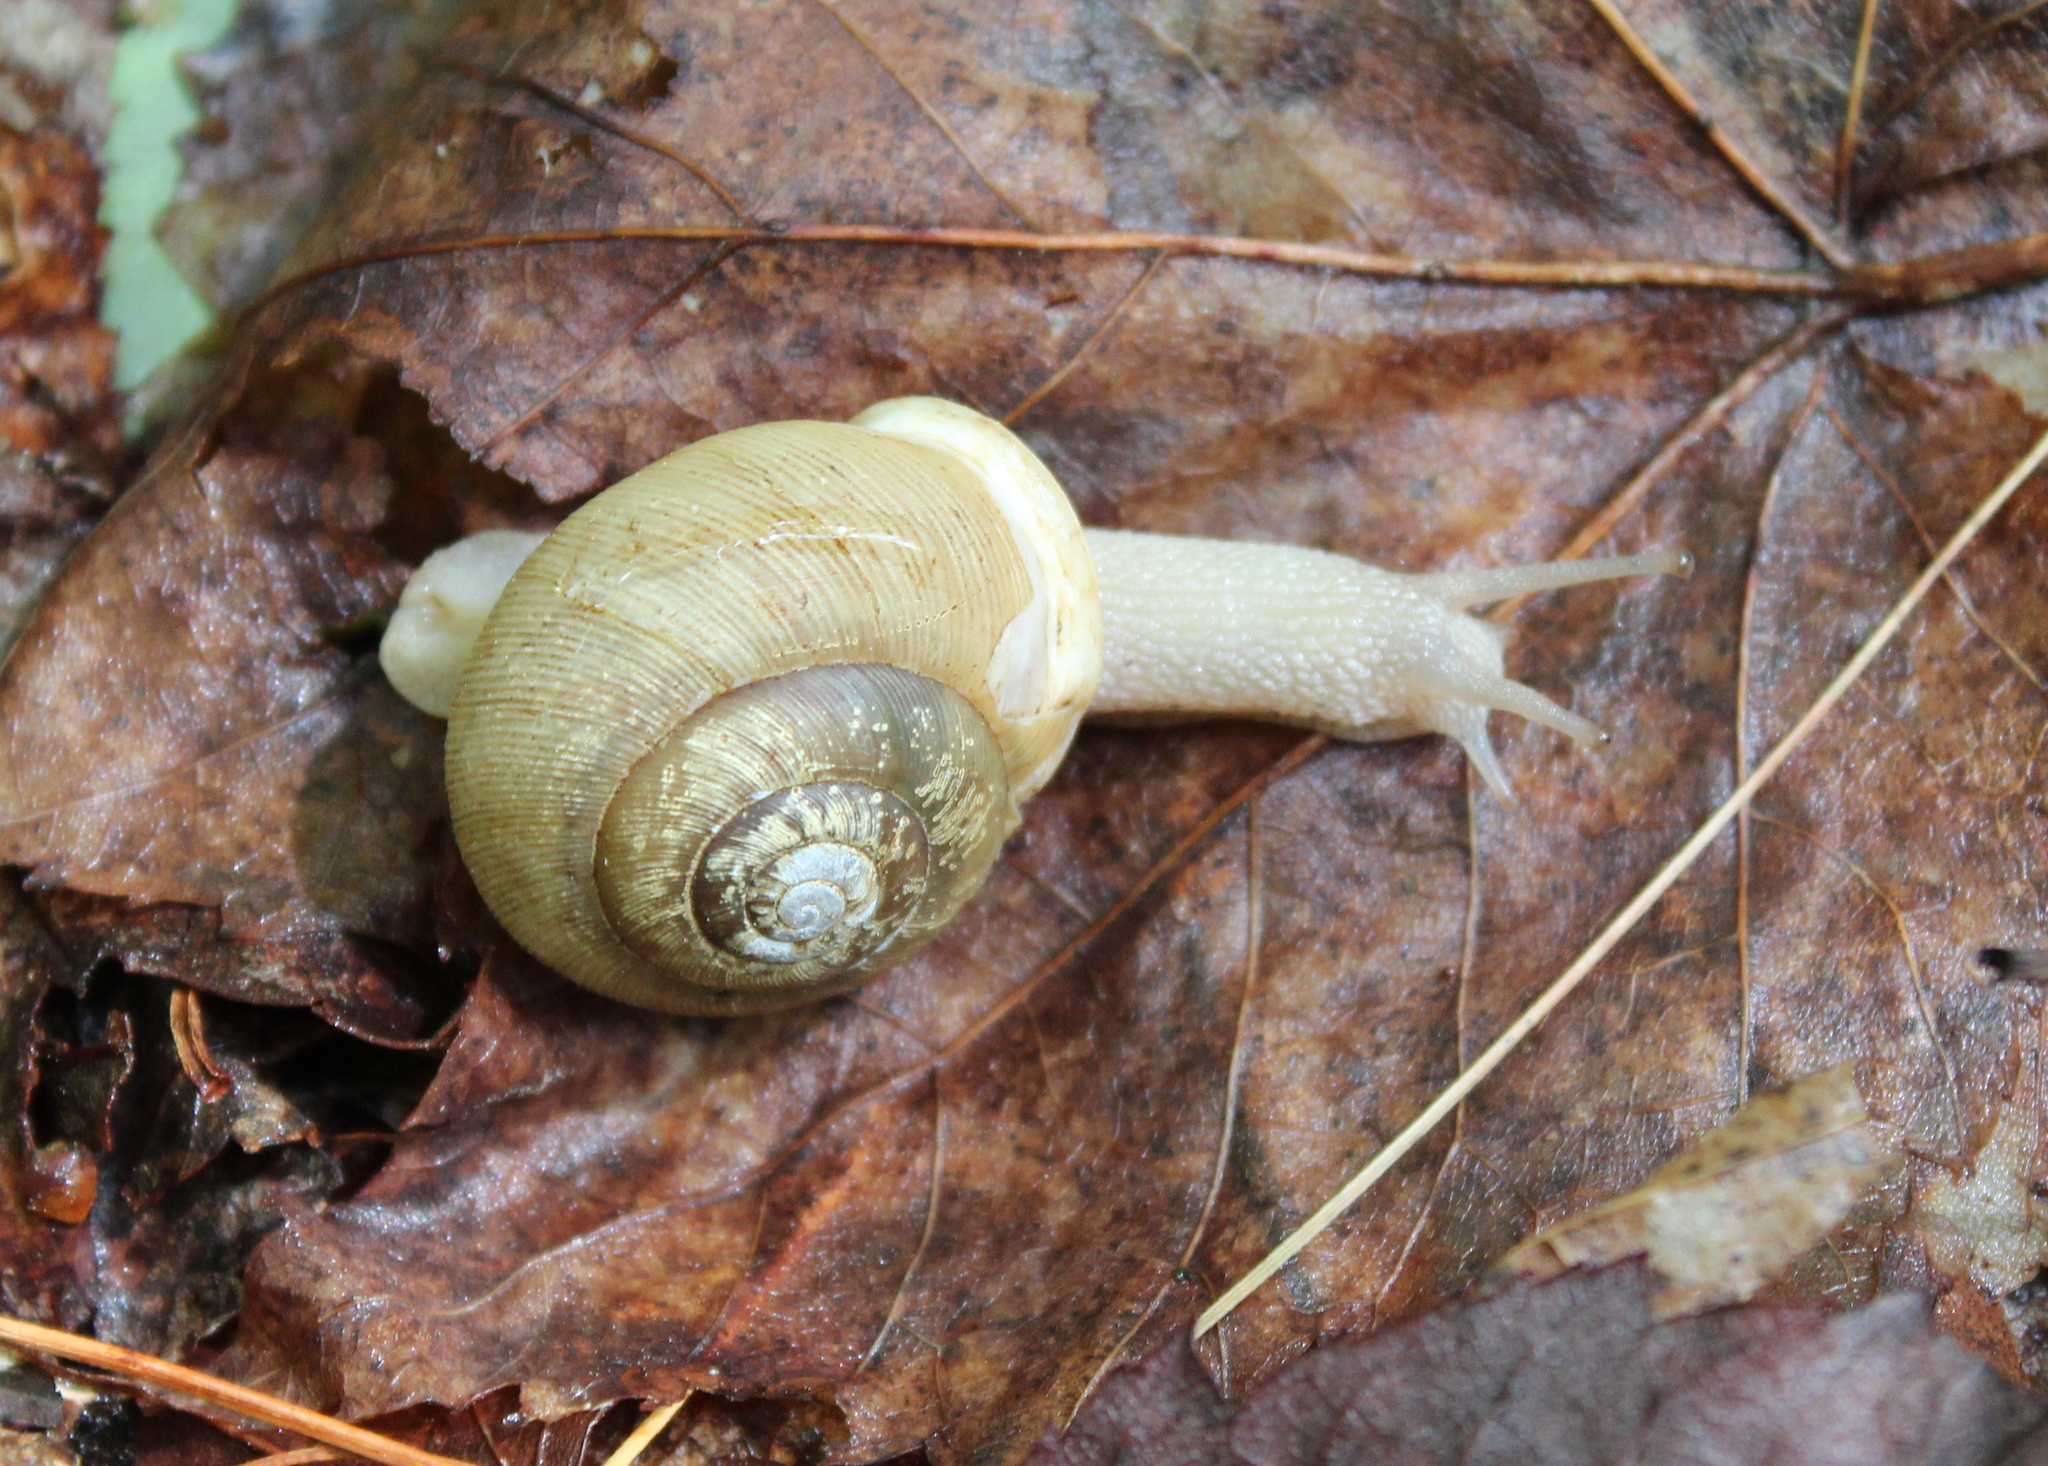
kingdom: Animalia
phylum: Mollusca
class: Gastropoda
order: Stylommatophora
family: Polygyridae
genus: Neohelix
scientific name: Neohelix albolabris
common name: Eastern whitelip
